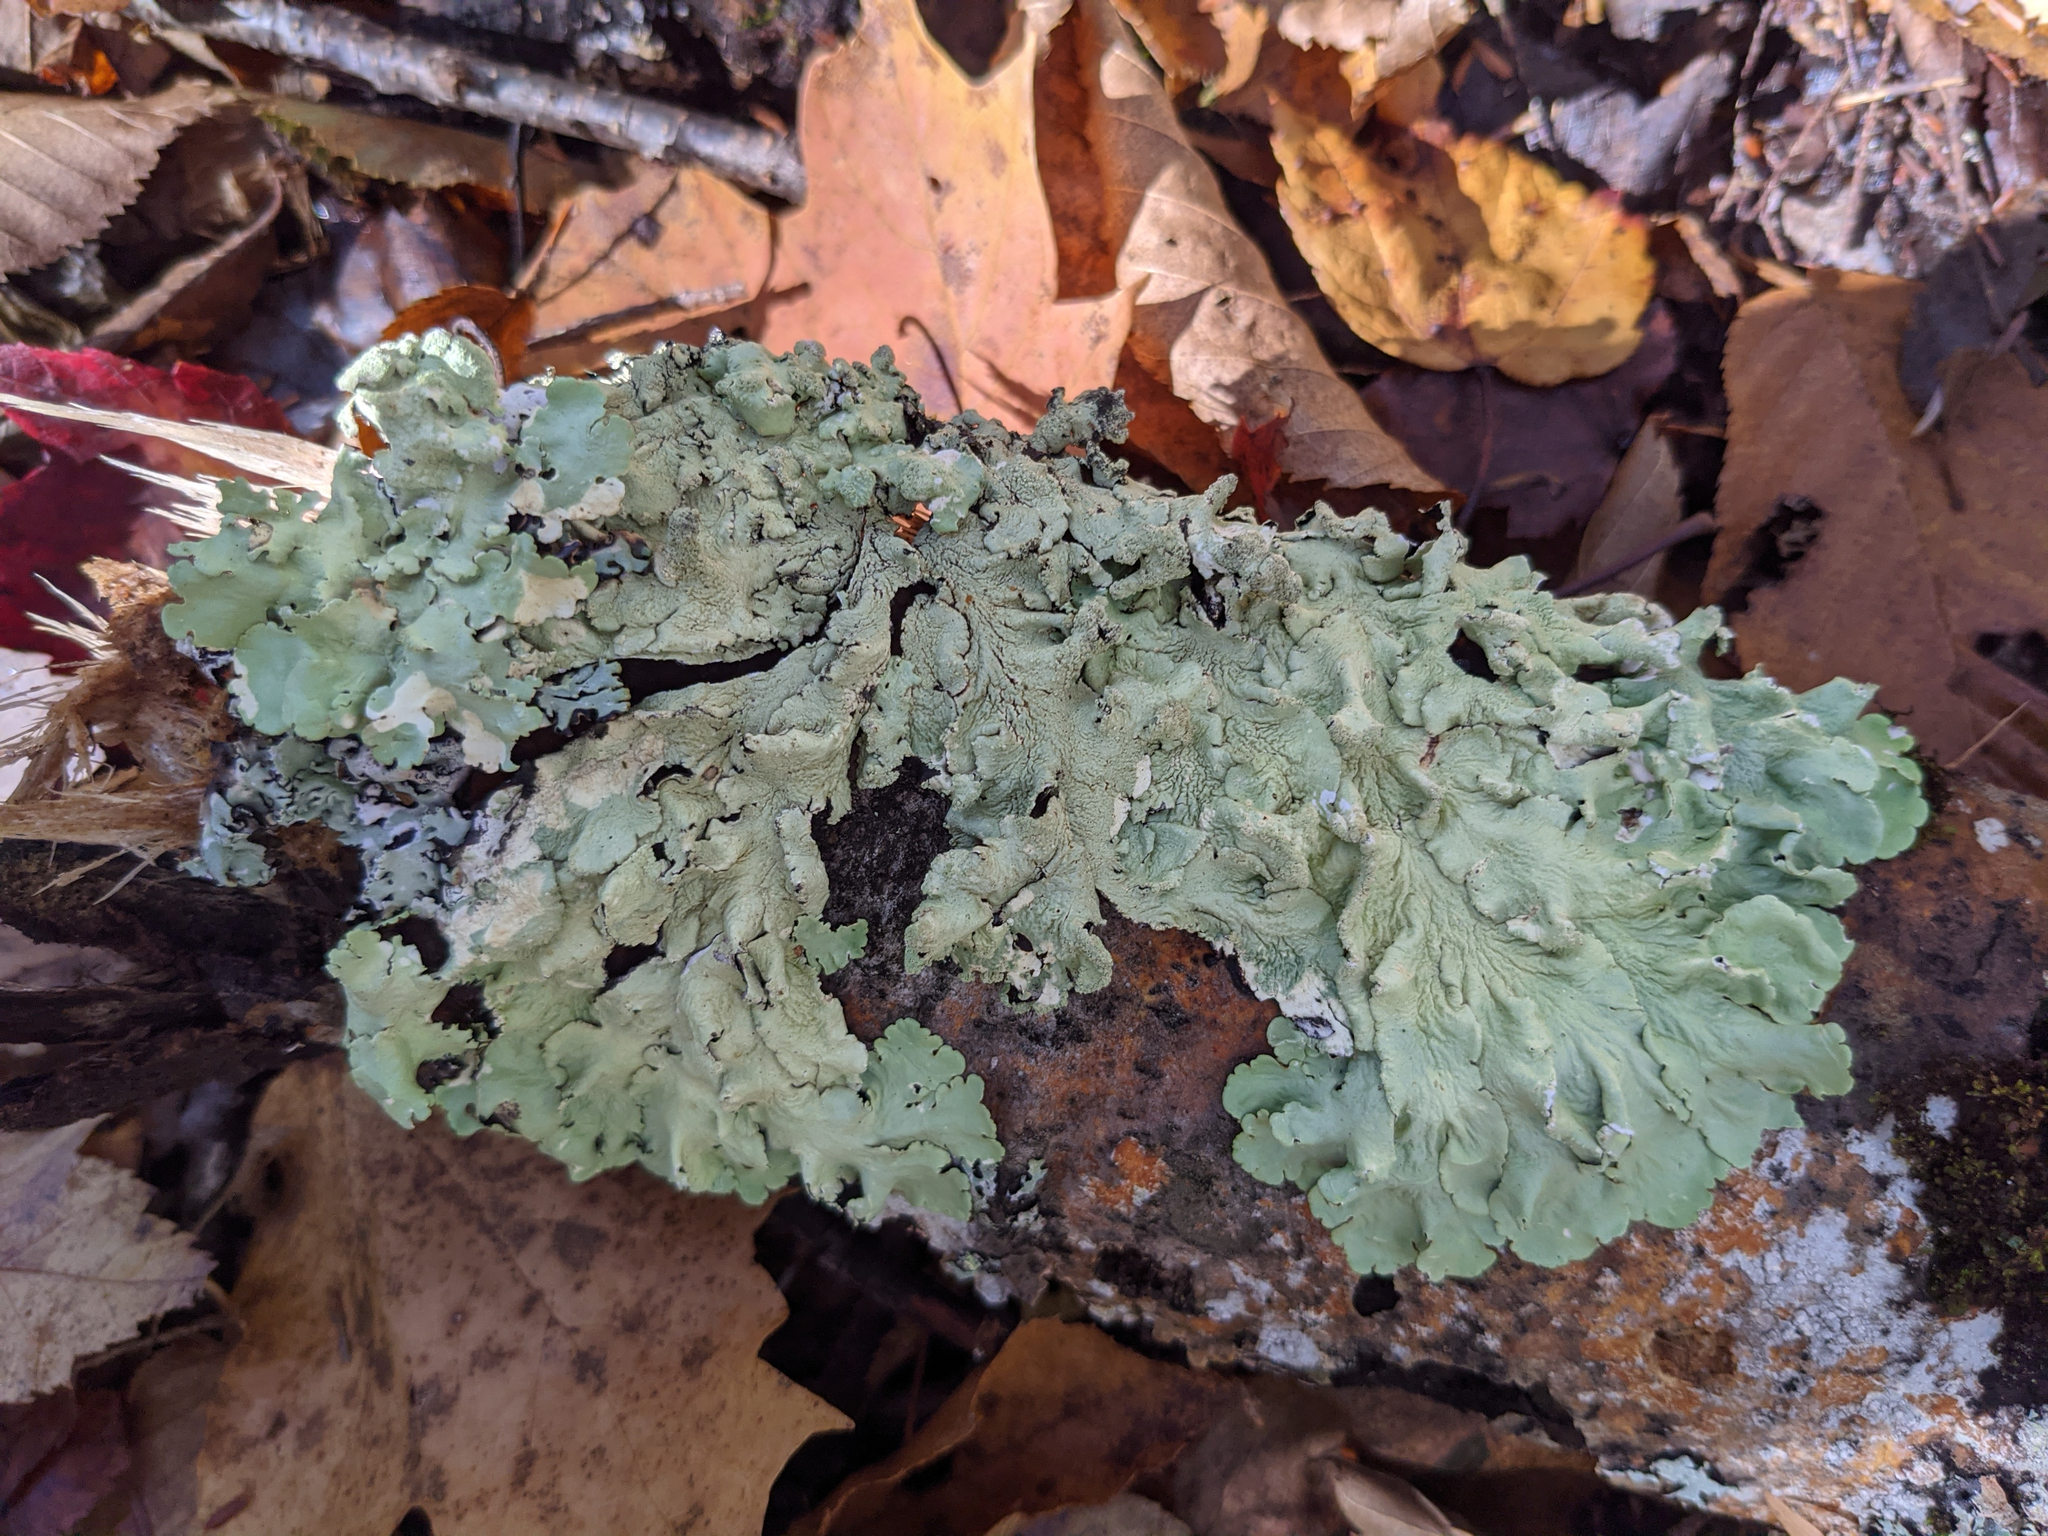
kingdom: Fungi
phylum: Ascomycota
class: Lecanoromycetes
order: Lecanorales
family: Parmeliaceae
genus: Flavoparmelia
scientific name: Flavoparmelia caperata
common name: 40-mile per hour lichen
